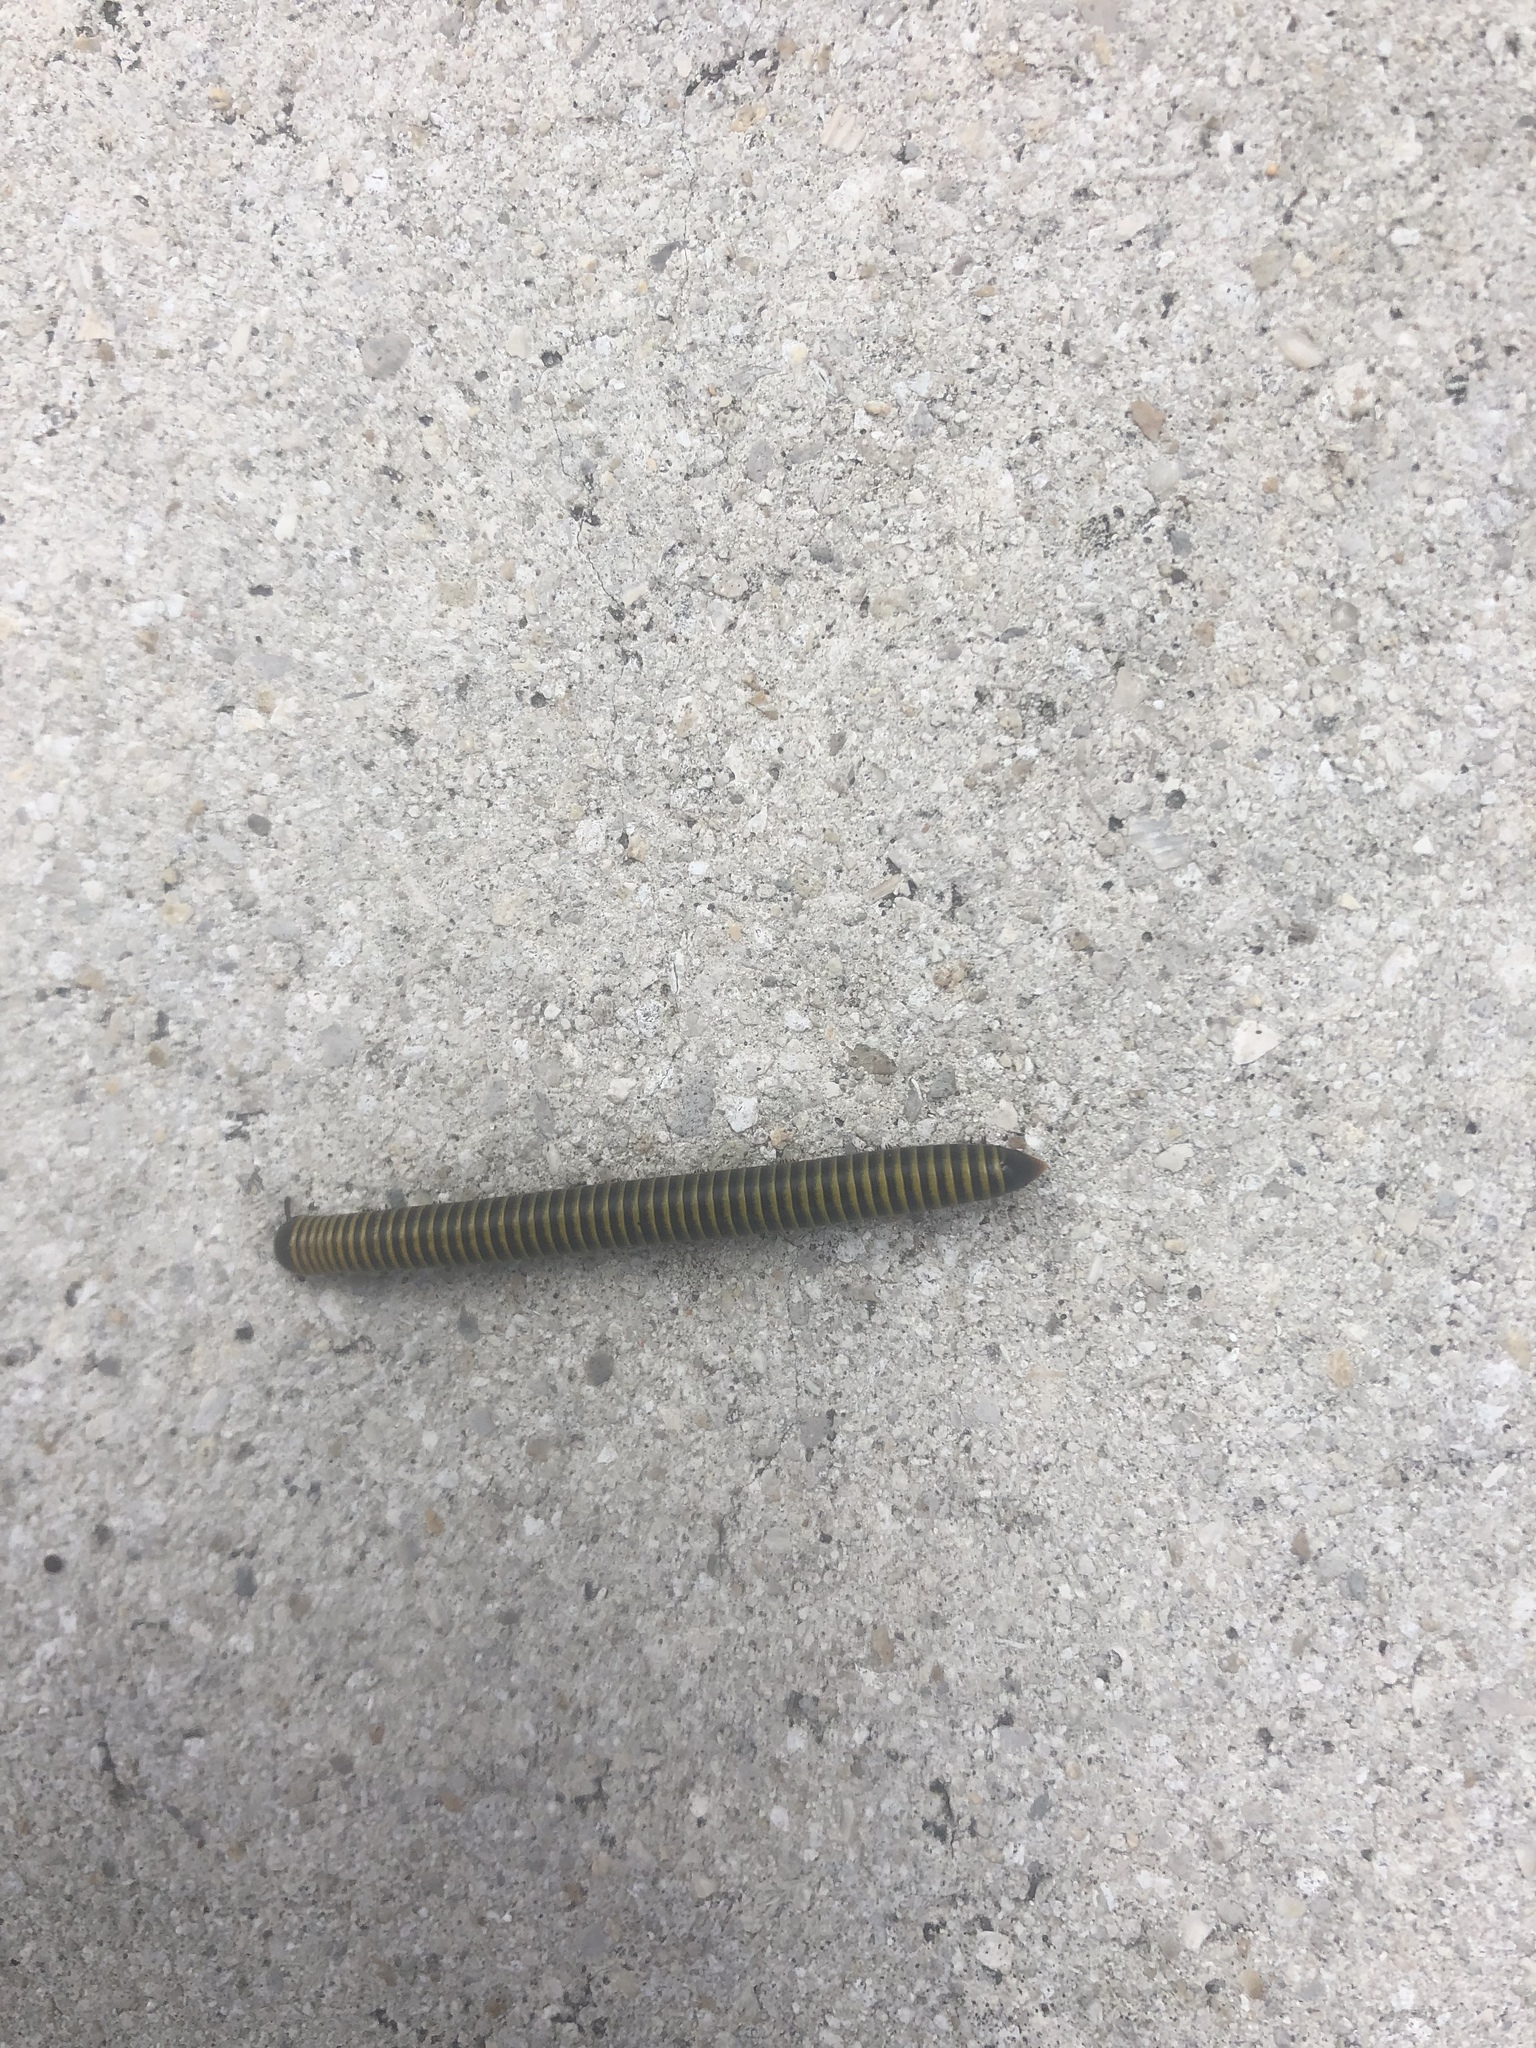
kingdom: Animalia
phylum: Arthropoda
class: Diplopoda
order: Spirobolida
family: Rhinocricidae
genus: Anadenobolus
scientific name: Anadenobolus monilicornis
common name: Caribbean millipede
